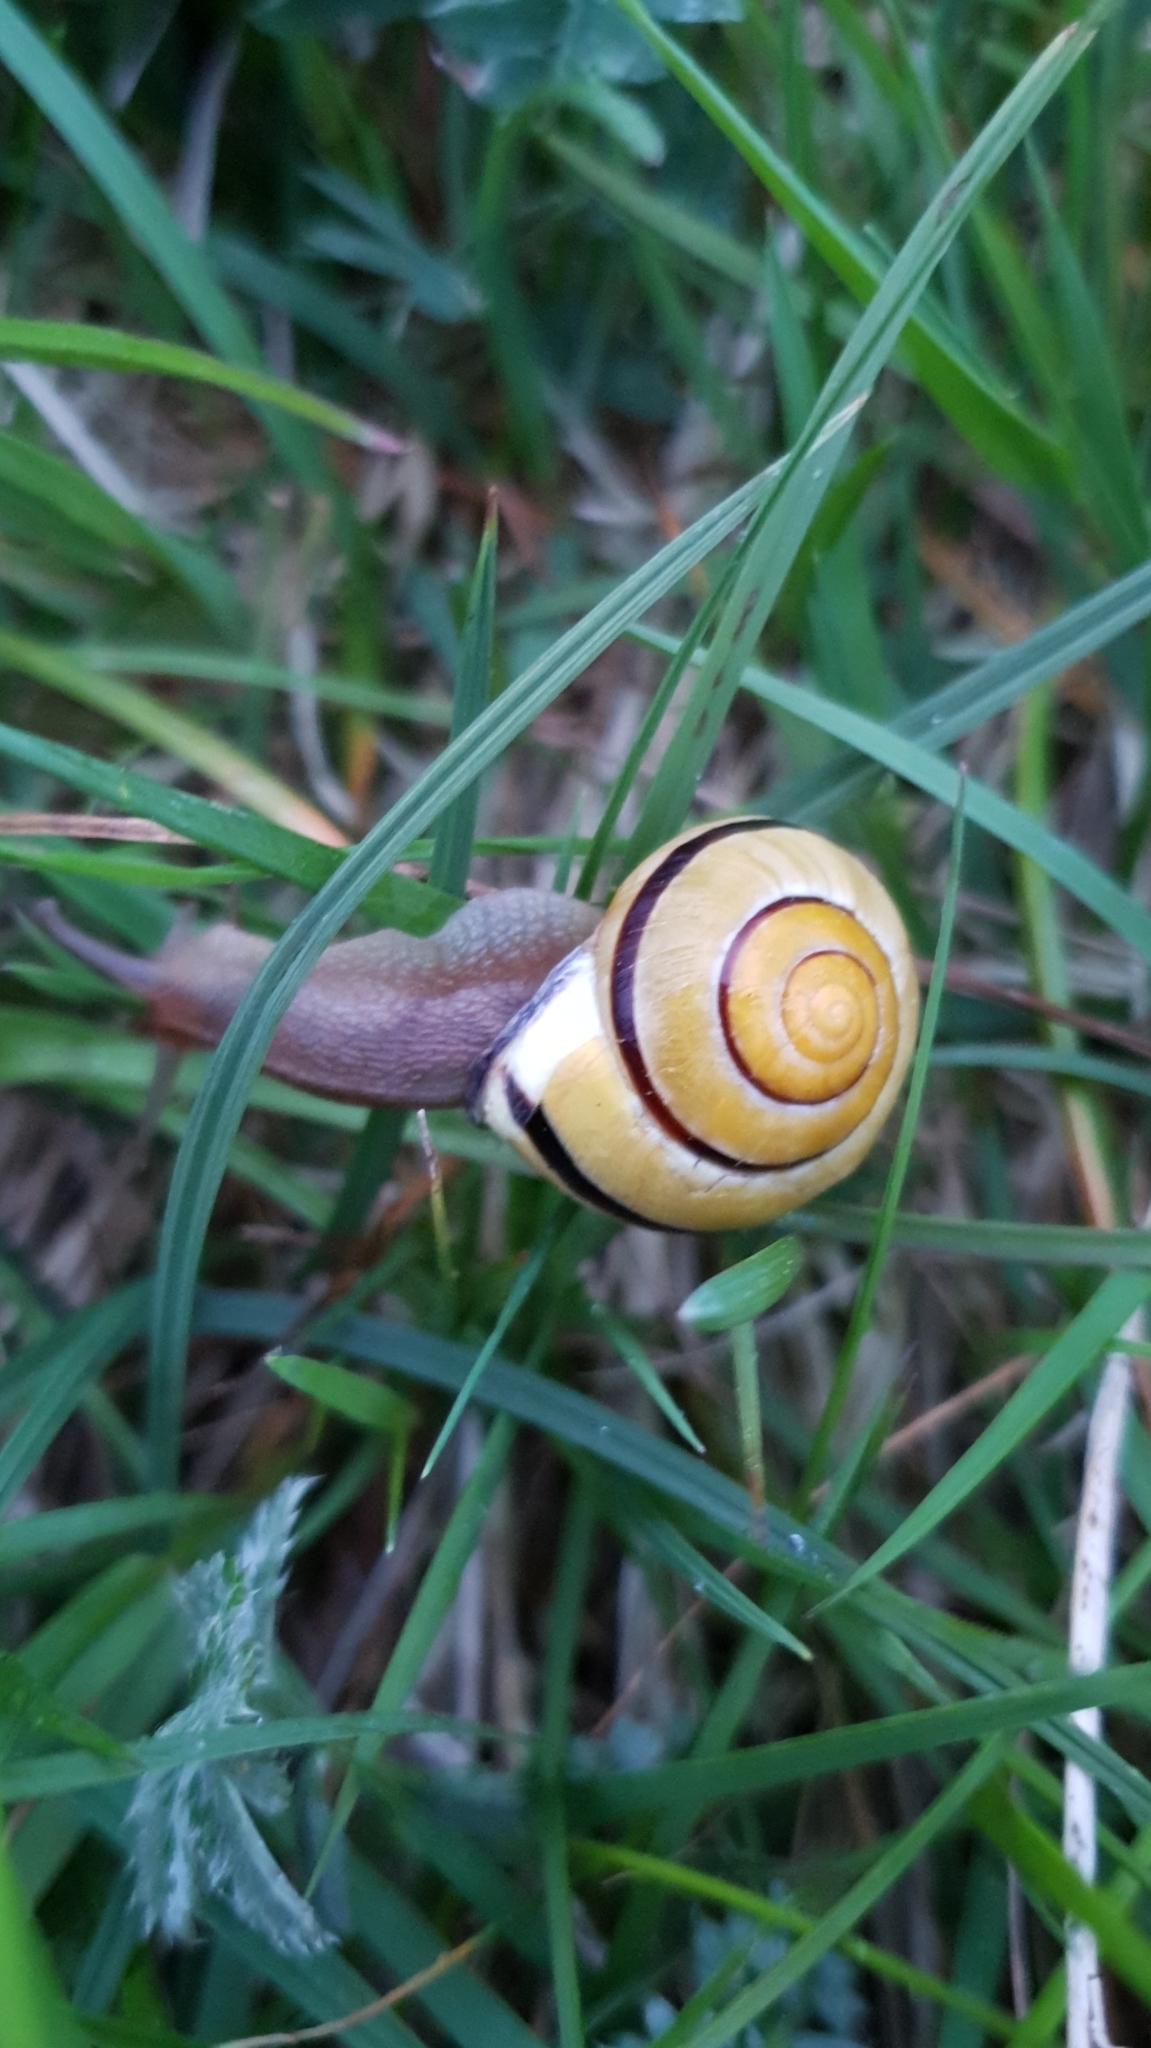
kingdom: Animalia
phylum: Mollusca
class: Gastropoda
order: Stylommatophora
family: Helicidae
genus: Cepaea
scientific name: Cepaea nemoralis
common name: Grovesnail
